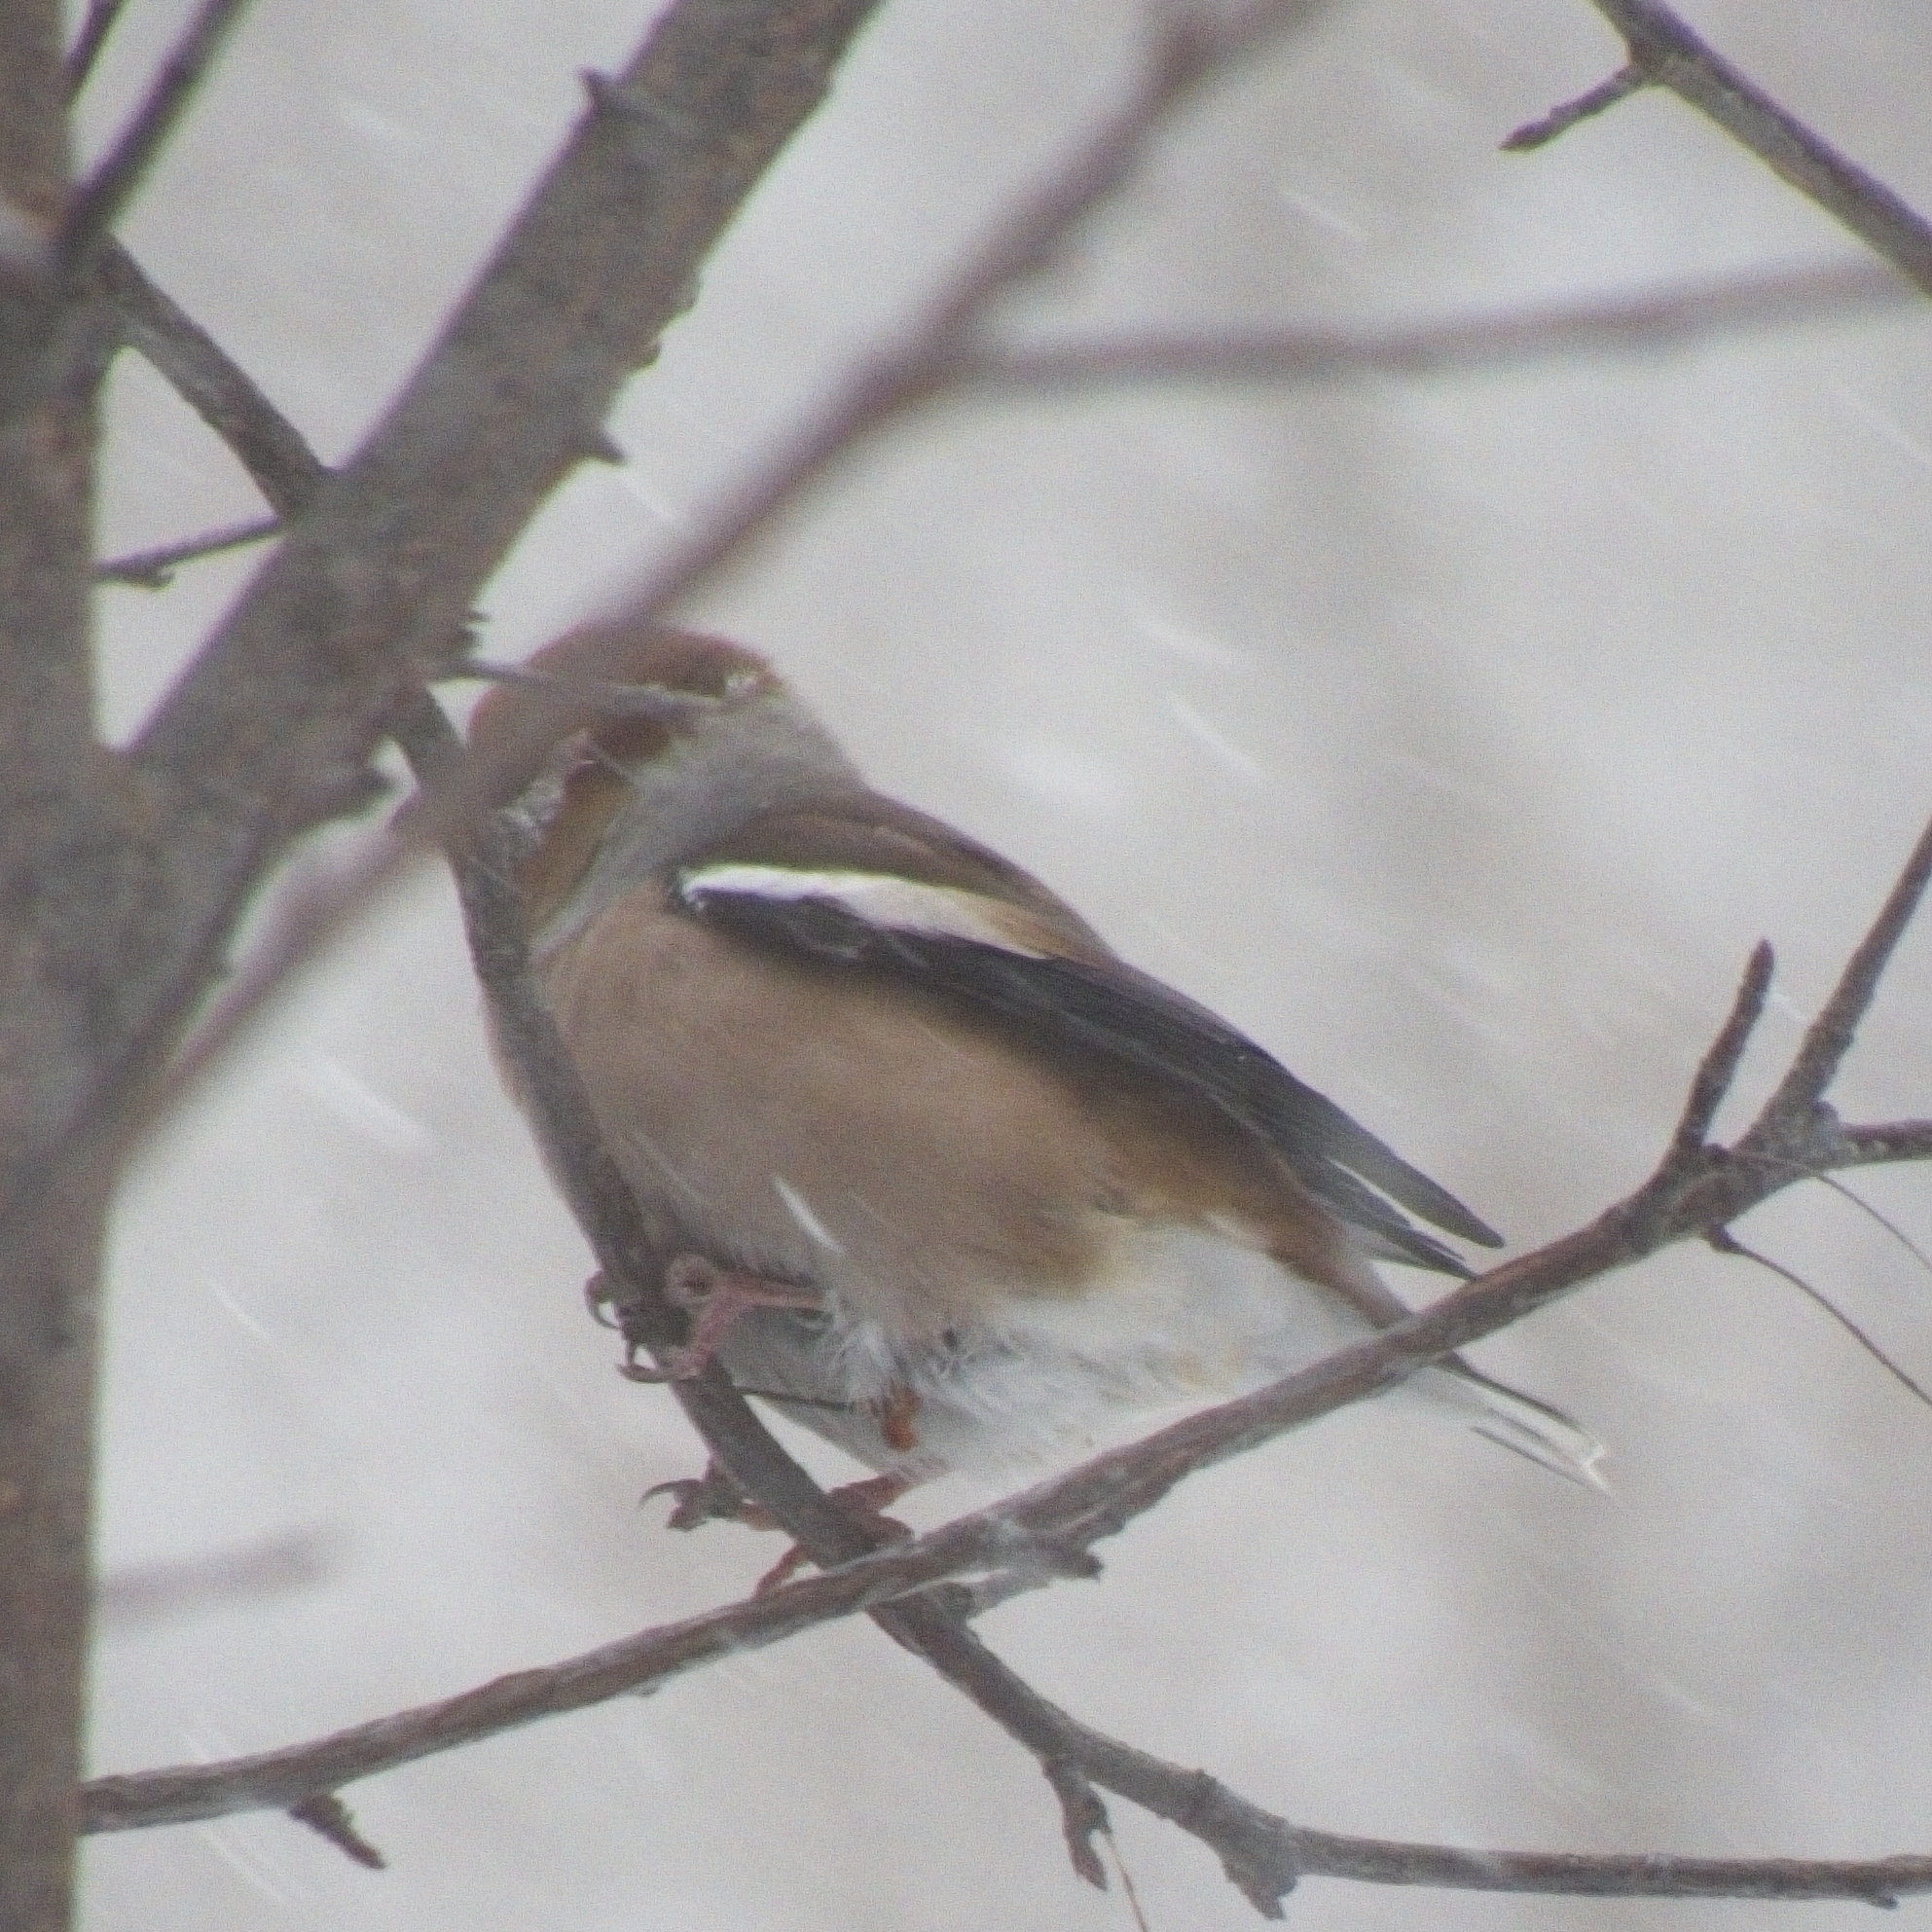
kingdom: Animalia
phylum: Chordata
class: Aves
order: Passeriformes
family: Fringillidae
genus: Coccothraustes
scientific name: Coccothraustes coccothraustes
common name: Hawfinch
